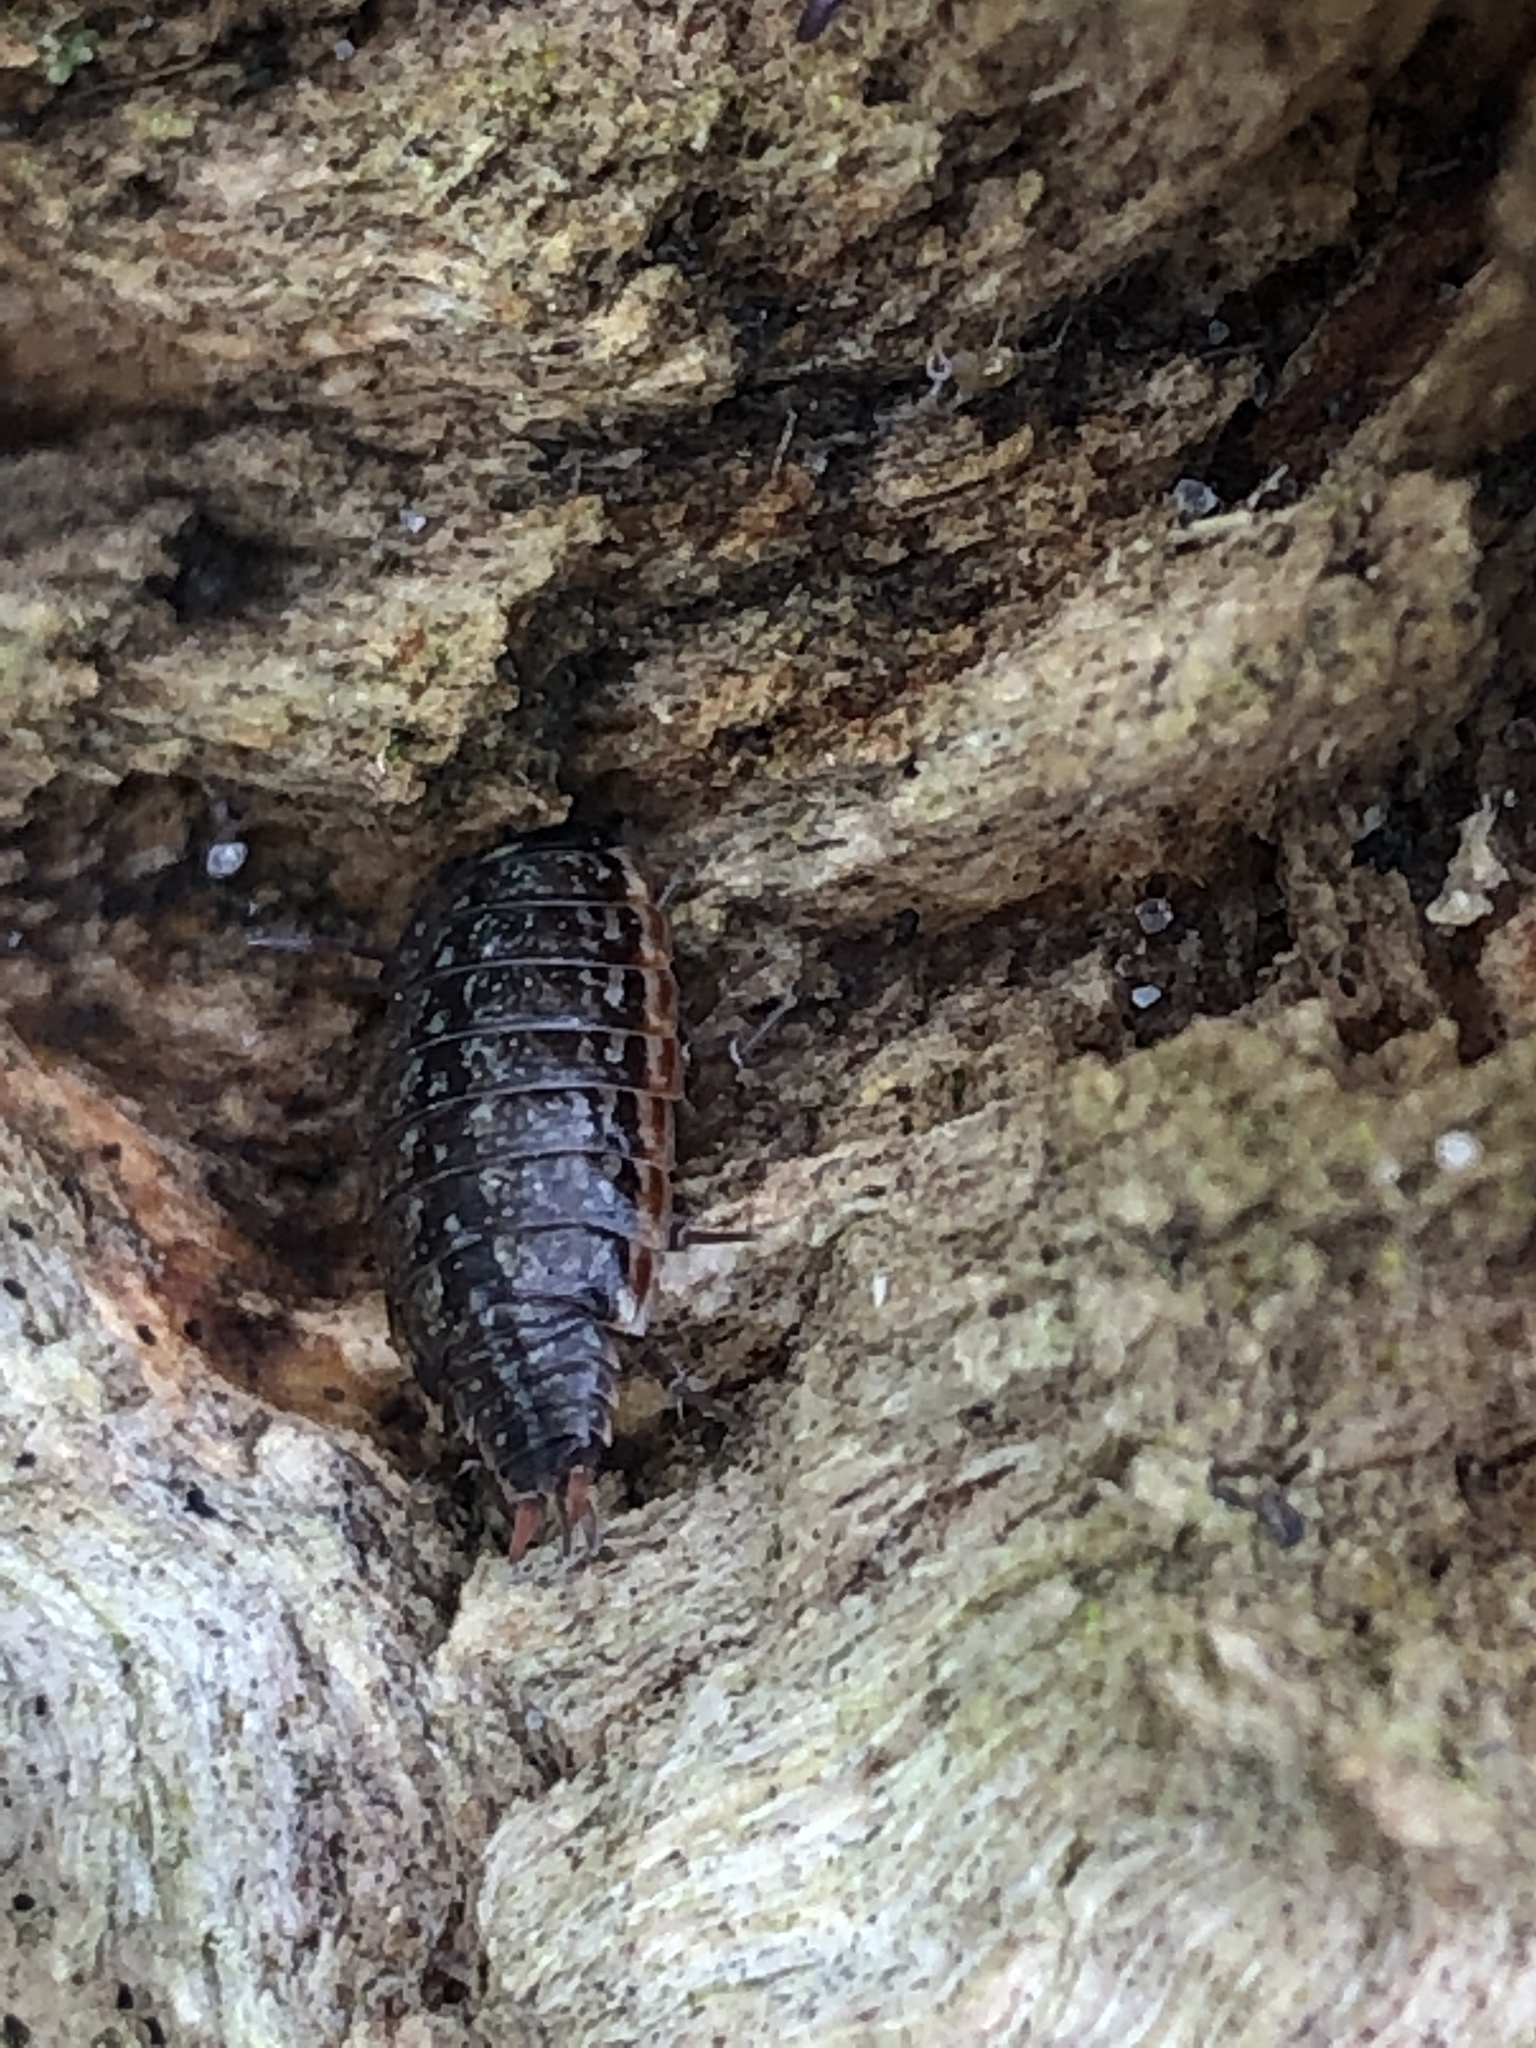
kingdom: Animalia
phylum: Arthropoda
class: Malacostraca
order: Isopoda
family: Philosciidae
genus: Philoscia
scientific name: Philoscia muscorum
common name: Common striped woodlouse
